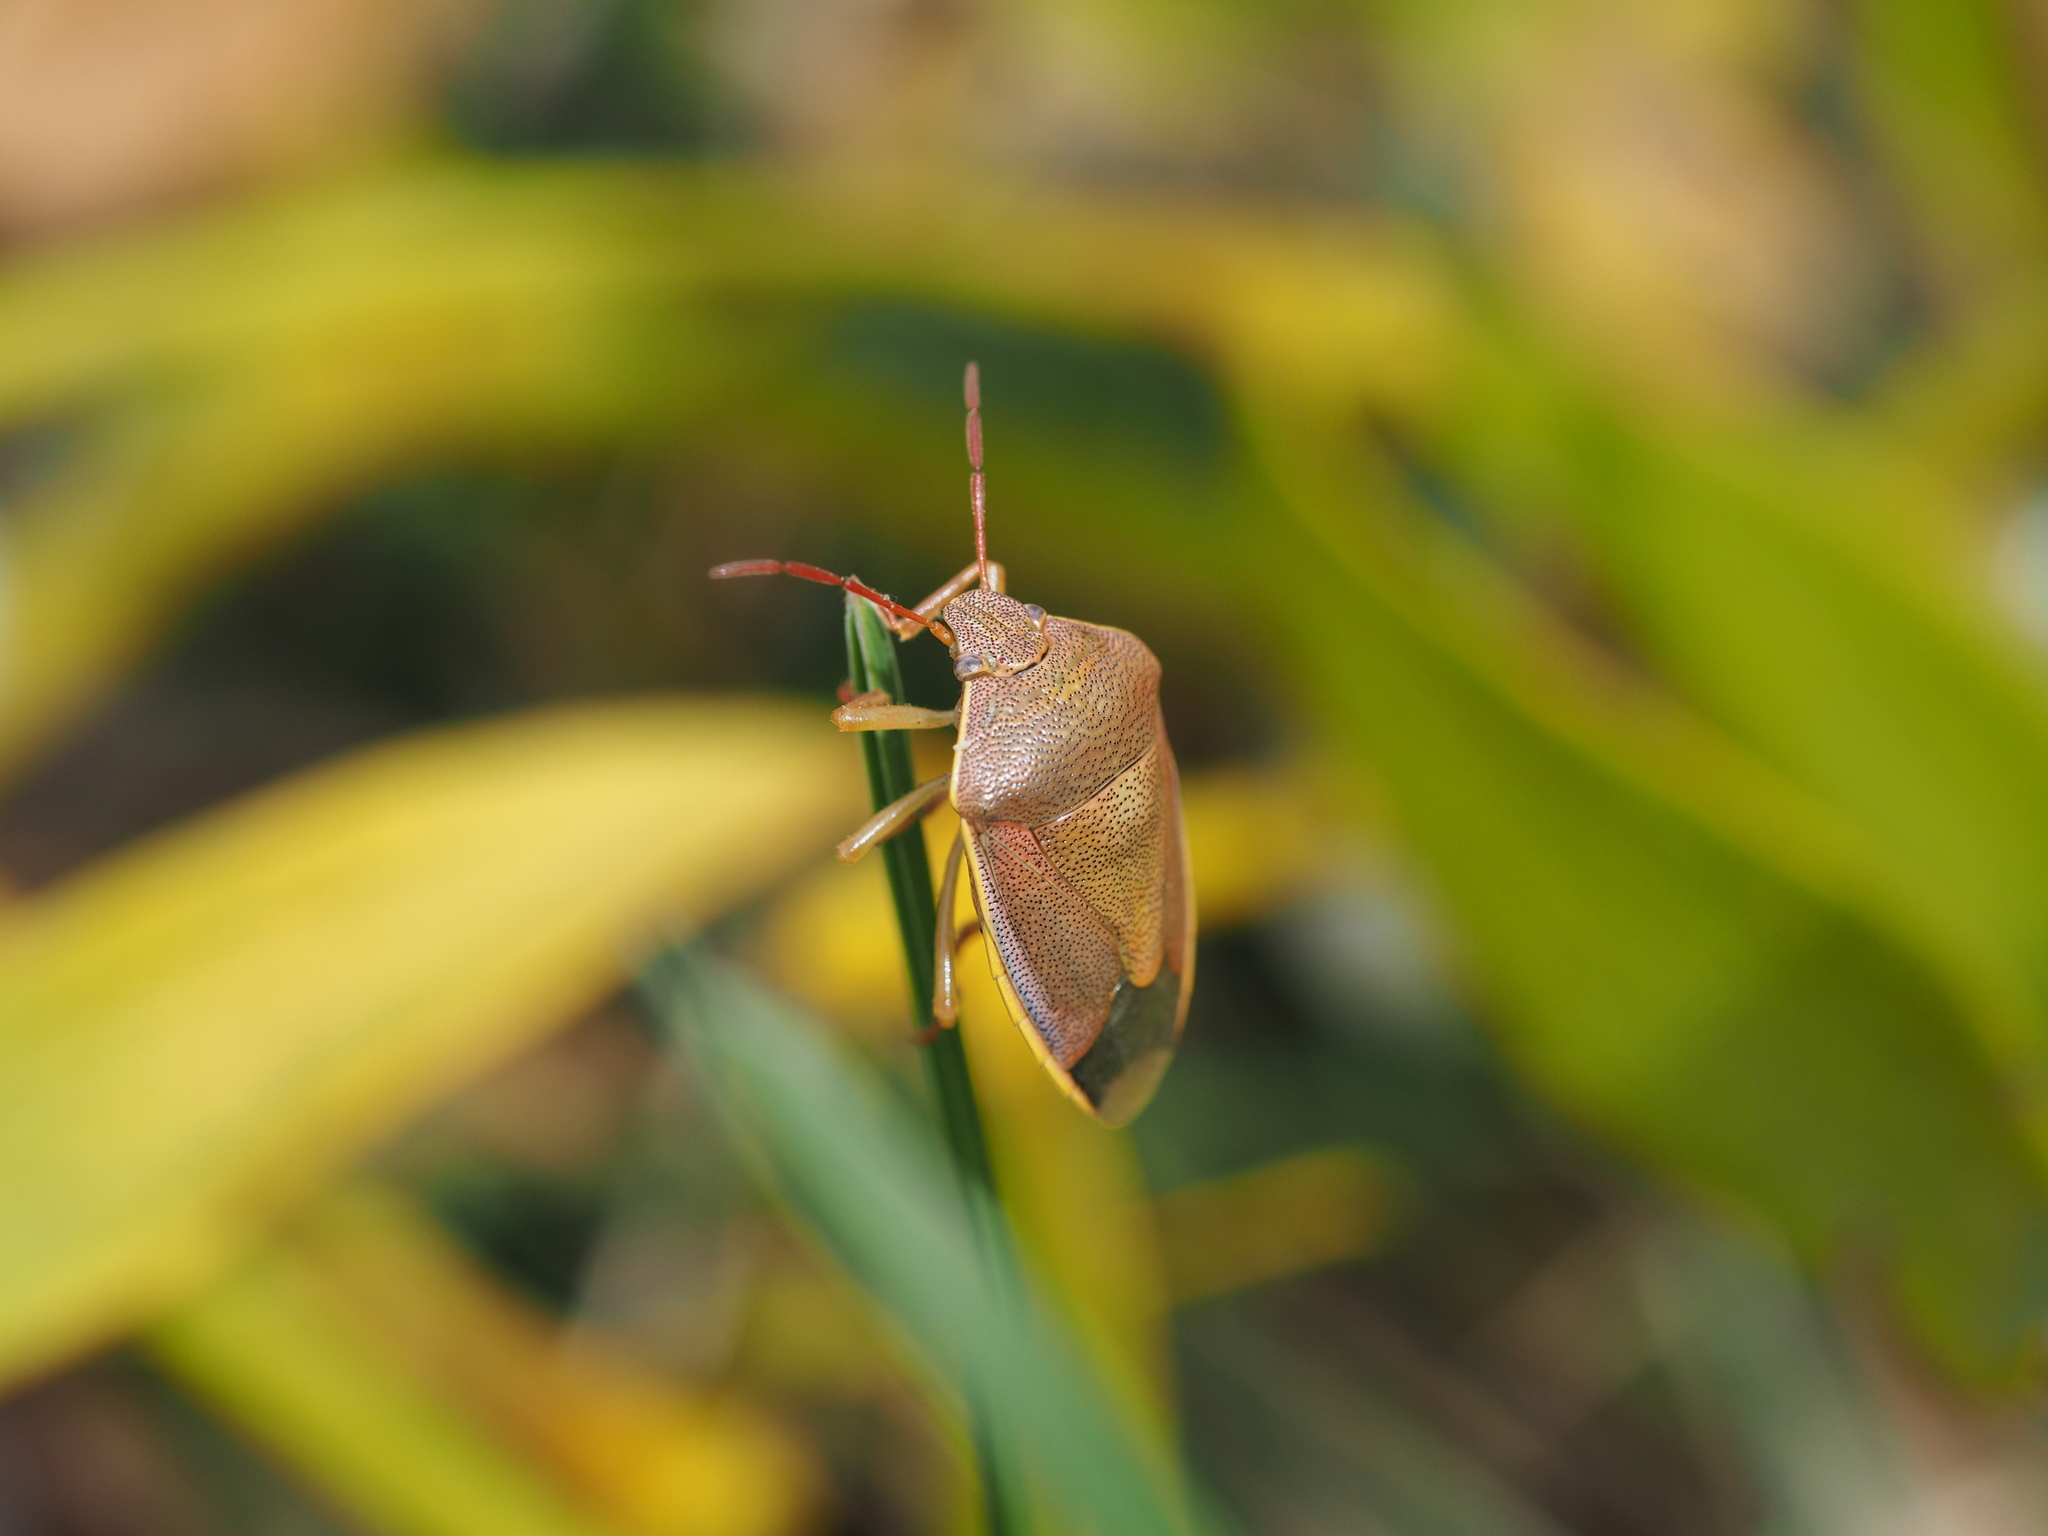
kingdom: Animalia
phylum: Arthropoda
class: Insecta
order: Hemiptera
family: Pentatomidae
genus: Piezodorus
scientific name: Piezodorus lituratus
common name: Stink bug
